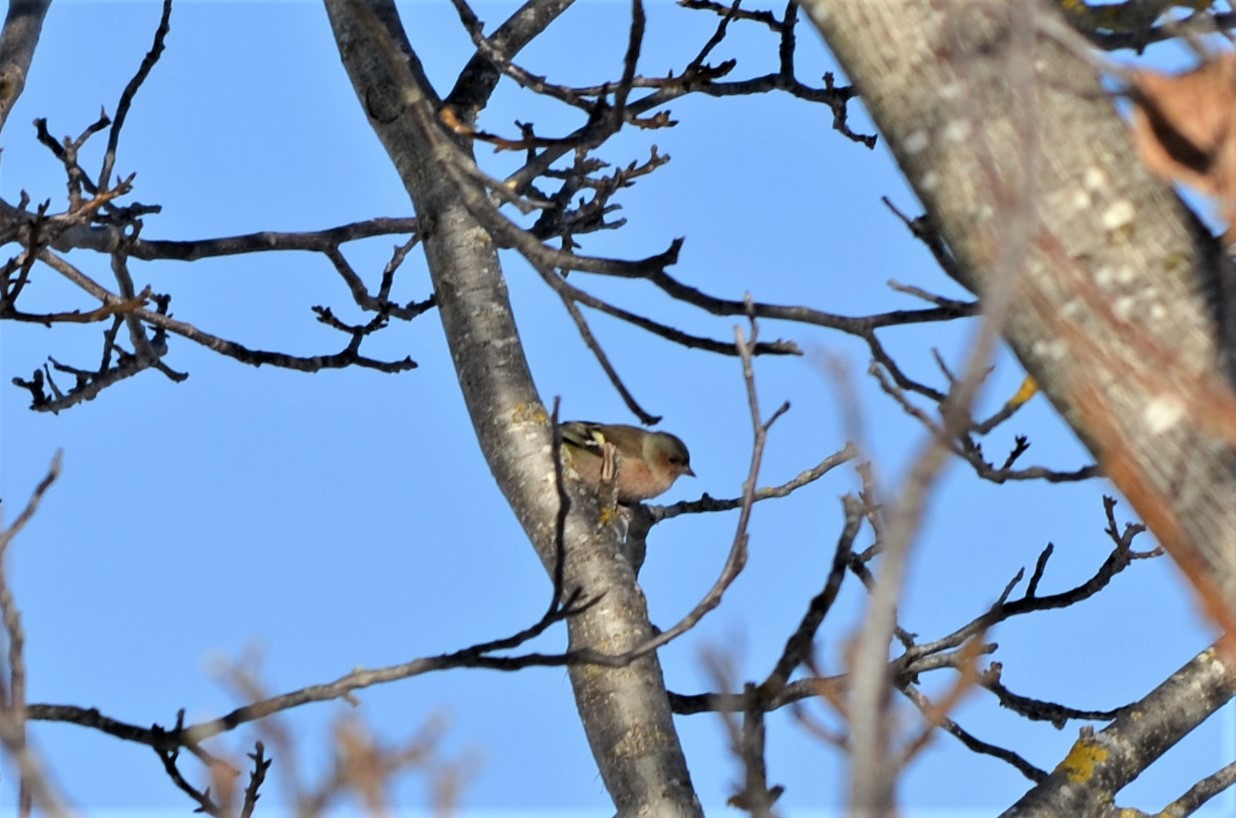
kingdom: Animalia
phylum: Chordata
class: Aves
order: Passeriformes
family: Fringillidae
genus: Fringilla
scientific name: Fringilla coelebs
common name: Common chaffinch
